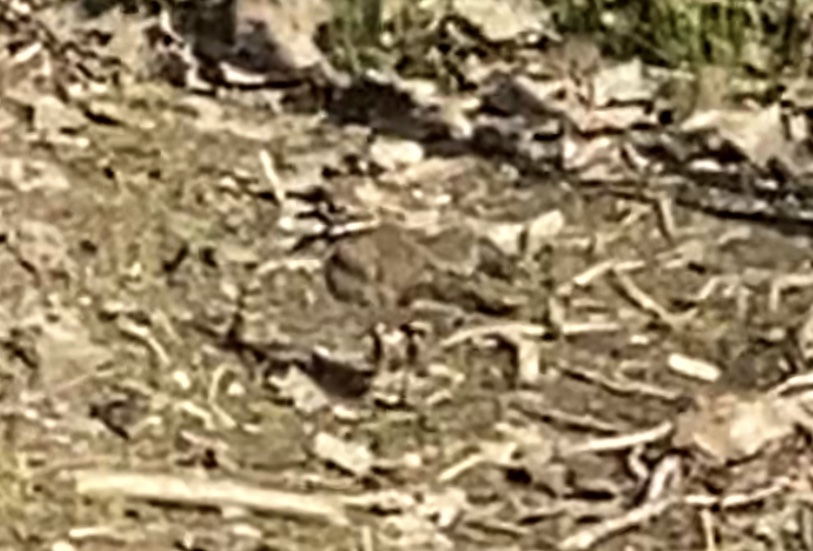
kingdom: Animalia
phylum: Chordata
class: Aves
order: Charadriiformes
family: Charadriidae
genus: Charadrius
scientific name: Charadrius vociferus
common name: Killdeer
